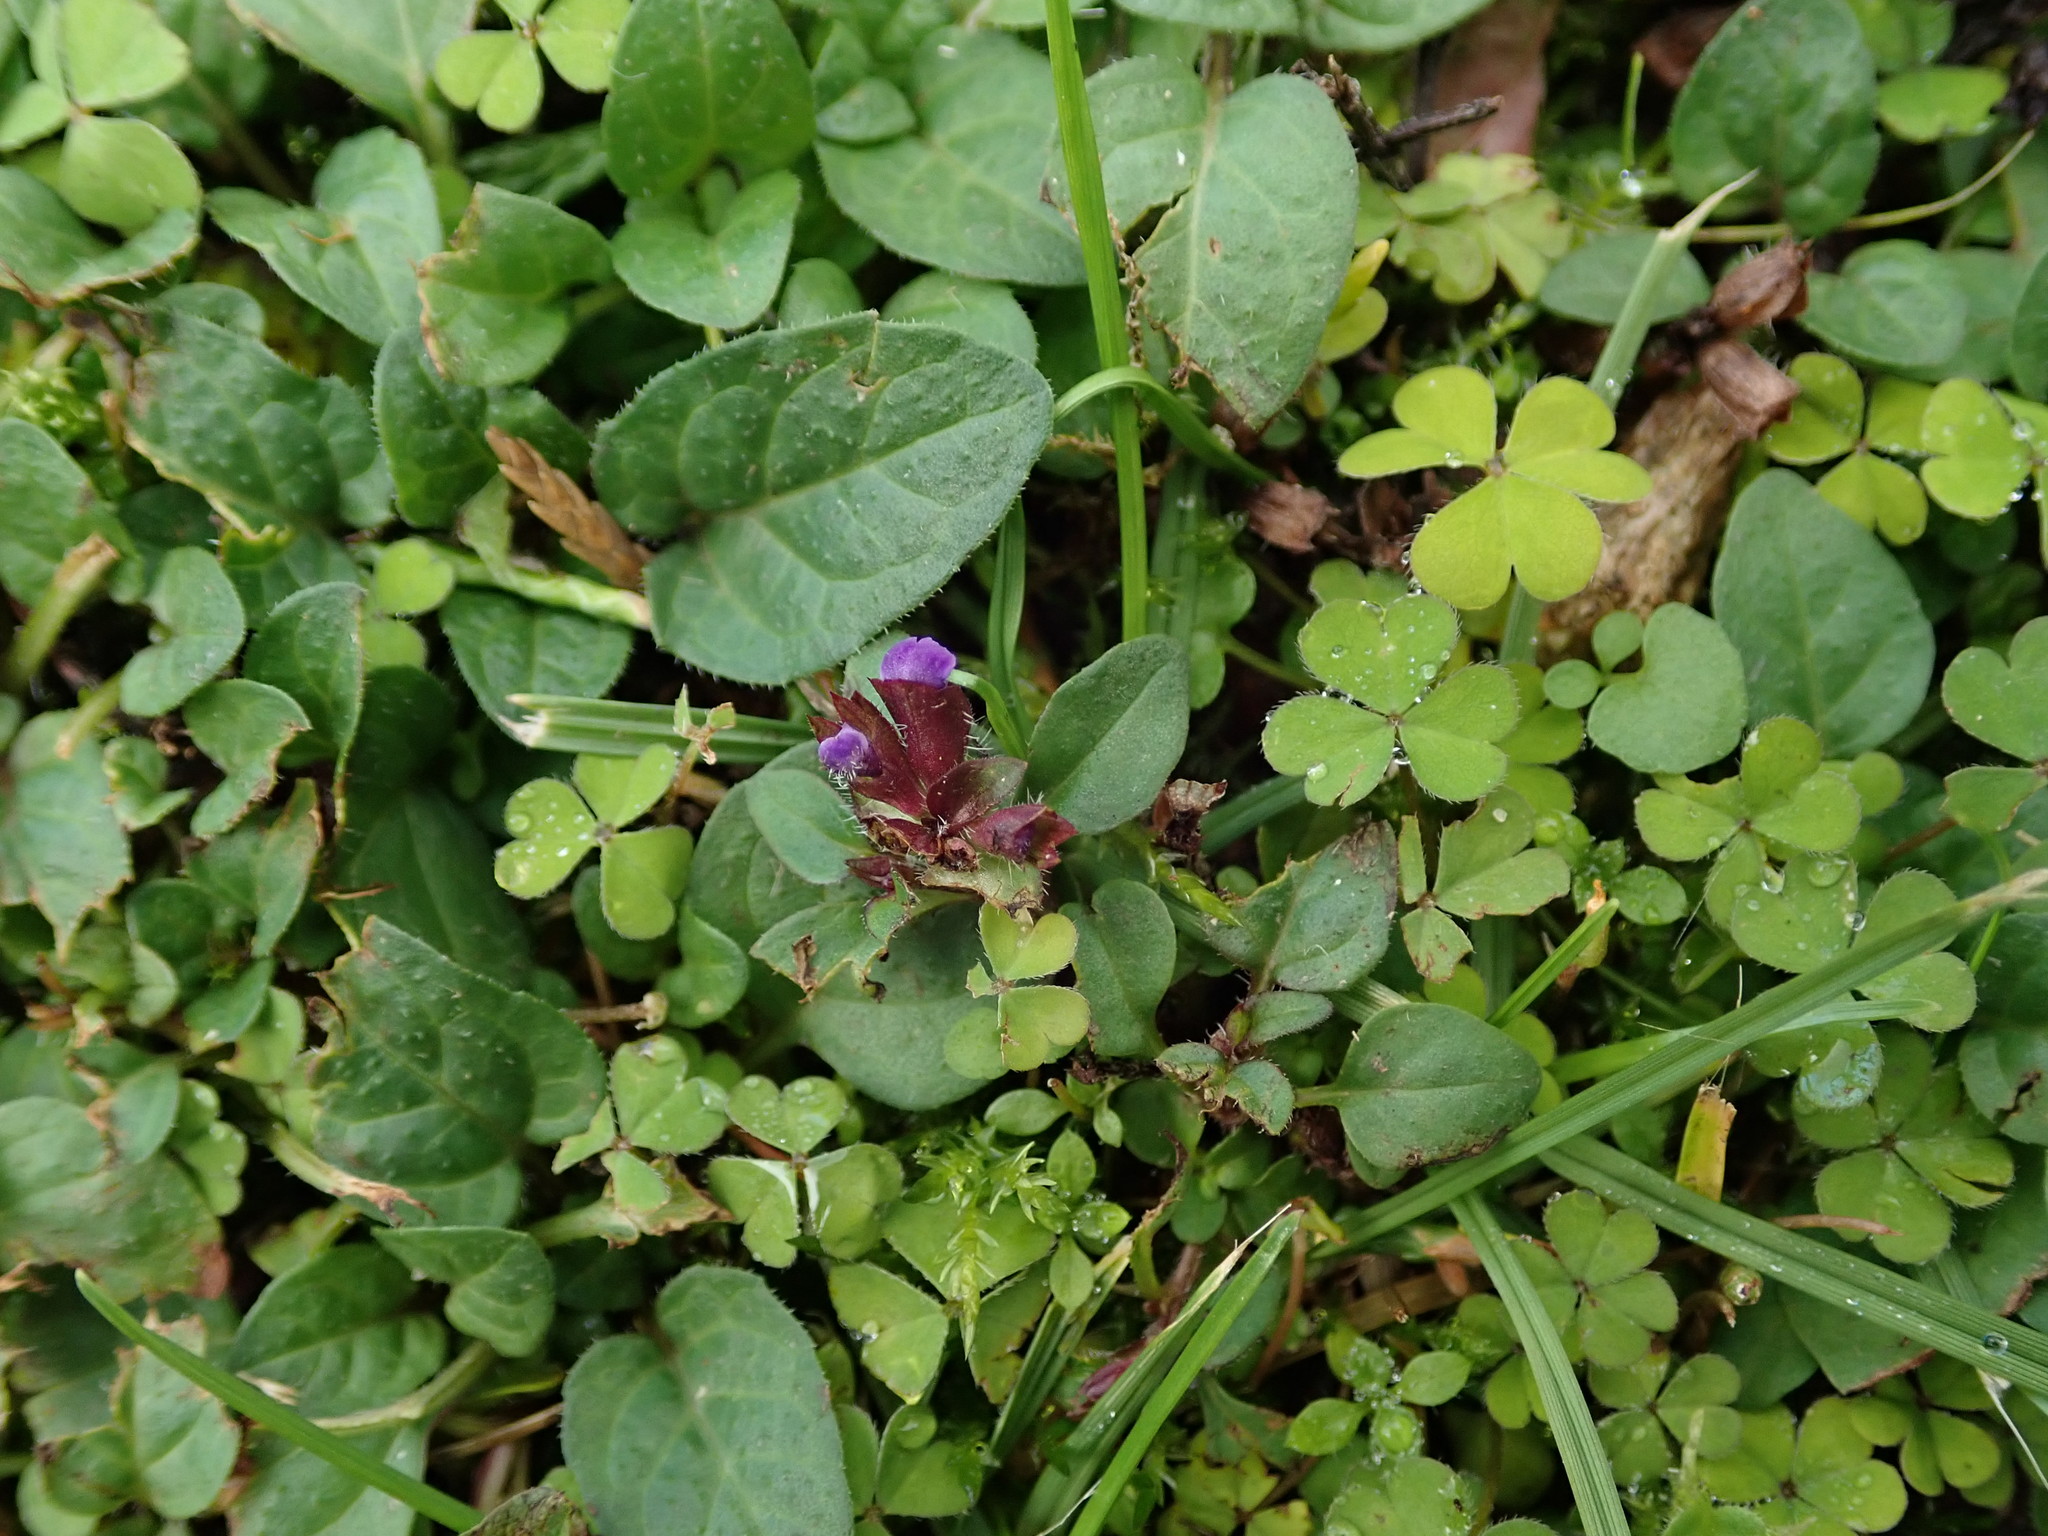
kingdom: Plantae
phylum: Tracheophyta
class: Magnoliopsida
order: Lamiales
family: Lamiaceae
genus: Prunella
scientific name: Prunella vulgaris
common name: Heal-all
